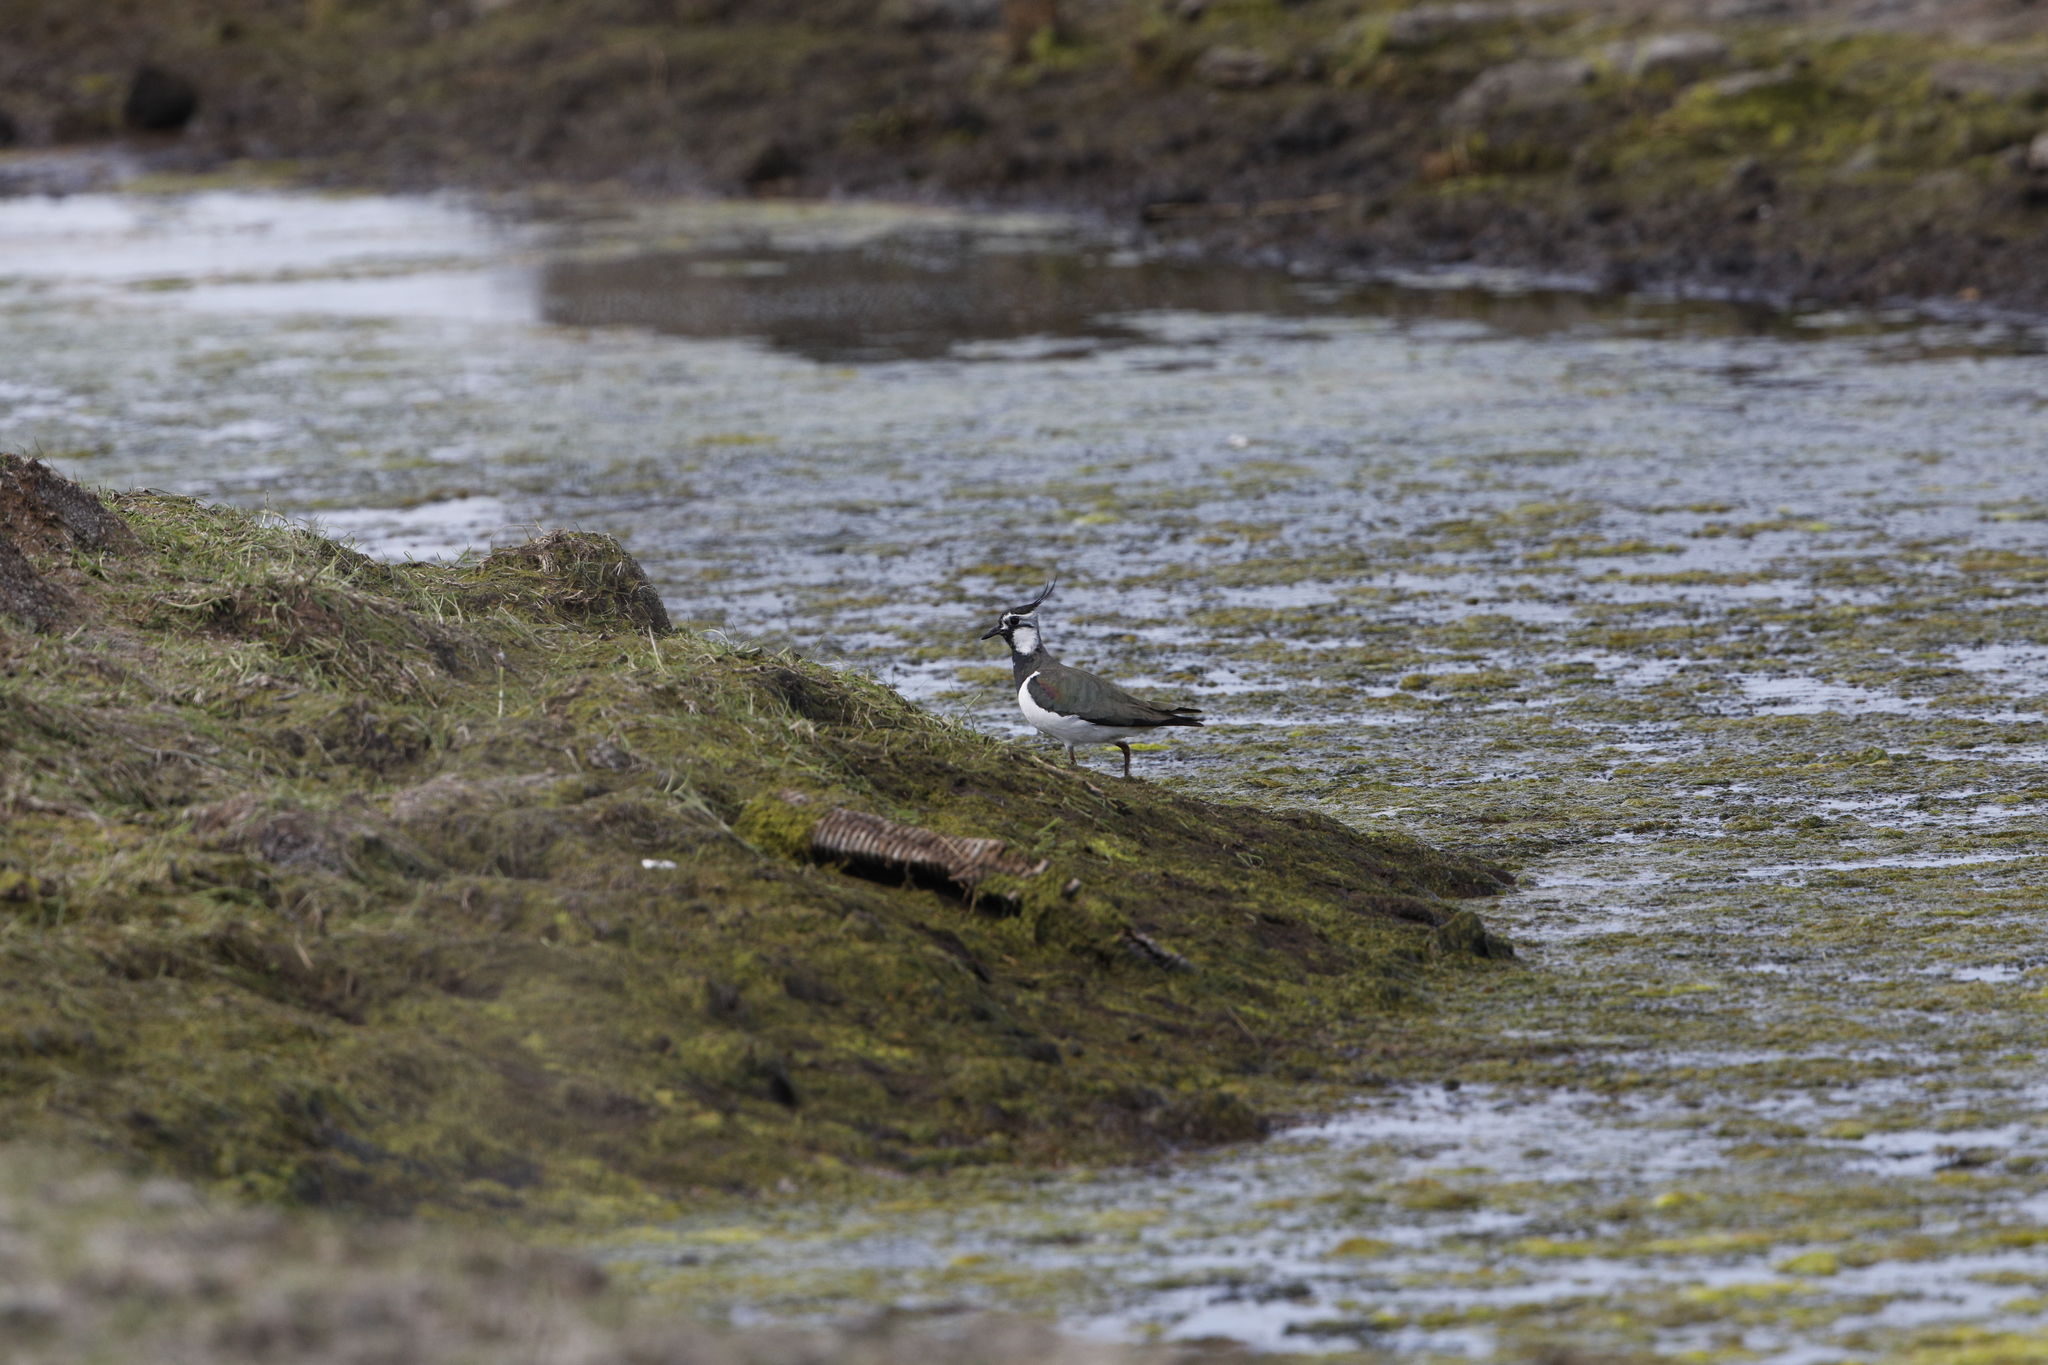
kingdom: Animalia
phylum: Chordata
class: Aves
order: Charadriiformes
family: Charadriidae
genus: Vanellus
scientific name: Vanellus vanellus
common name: Northern lapwing
